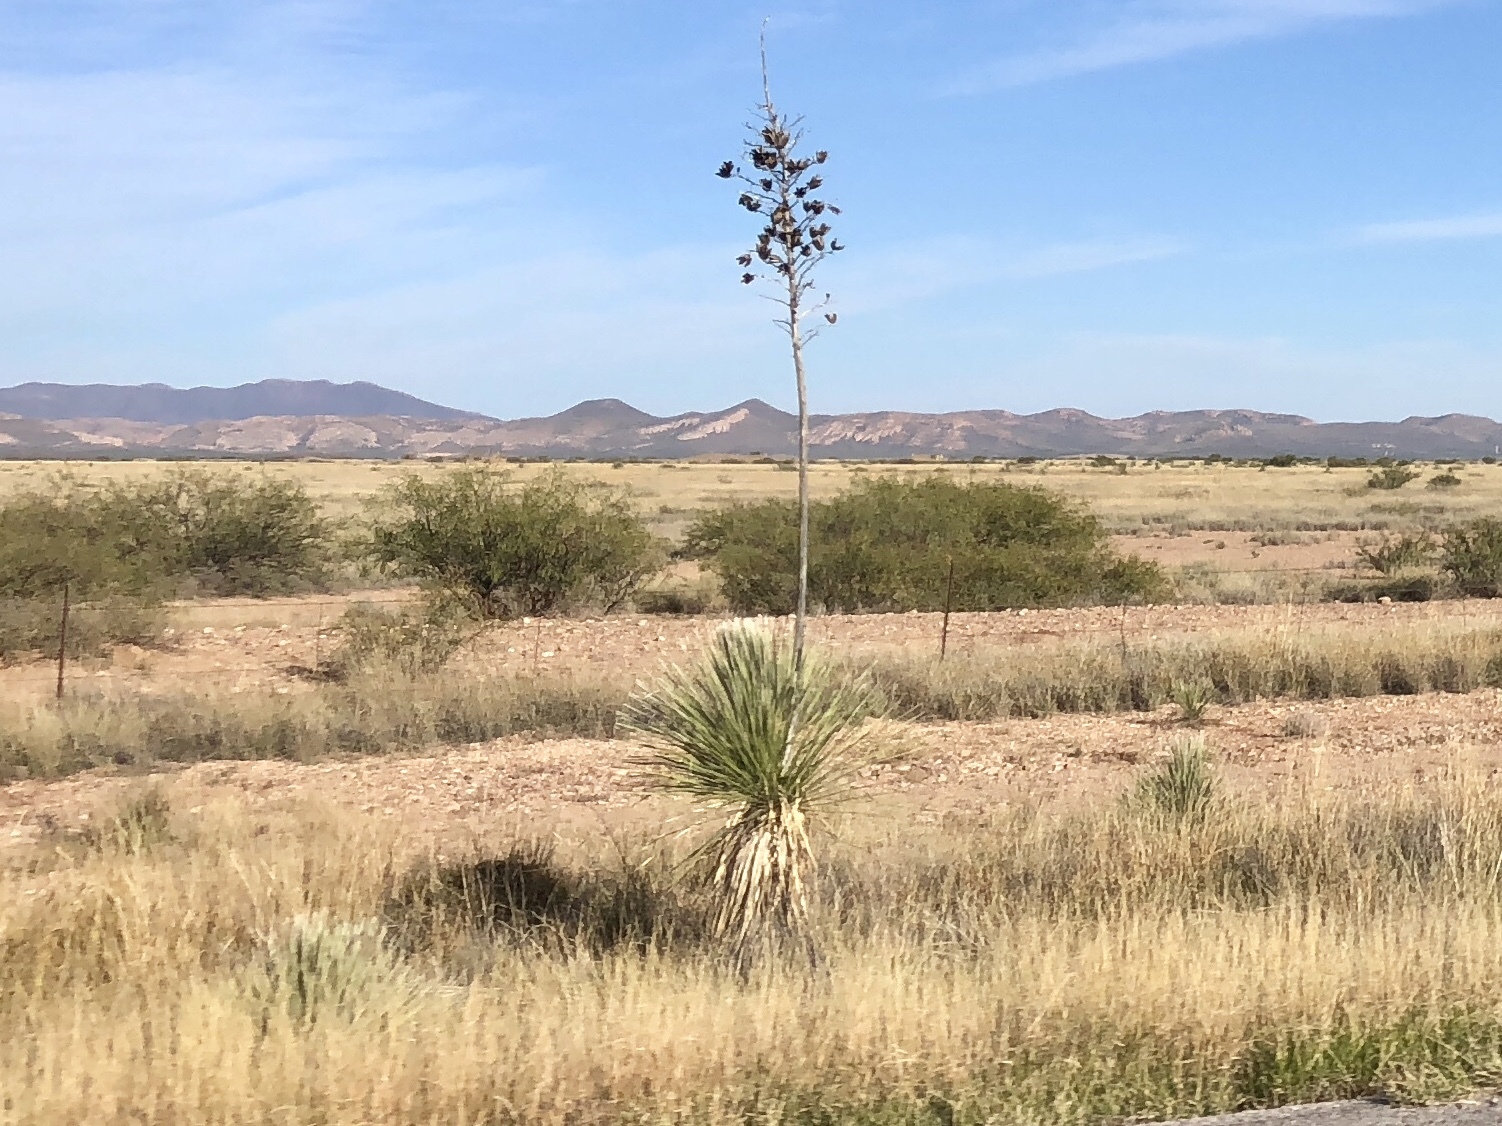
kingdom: Plantae
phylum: Tracheophyta
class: Liliopsida
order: Asparagales
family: Asparagaceae
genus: Yucca
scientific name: Yucca elata
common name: Palmella
